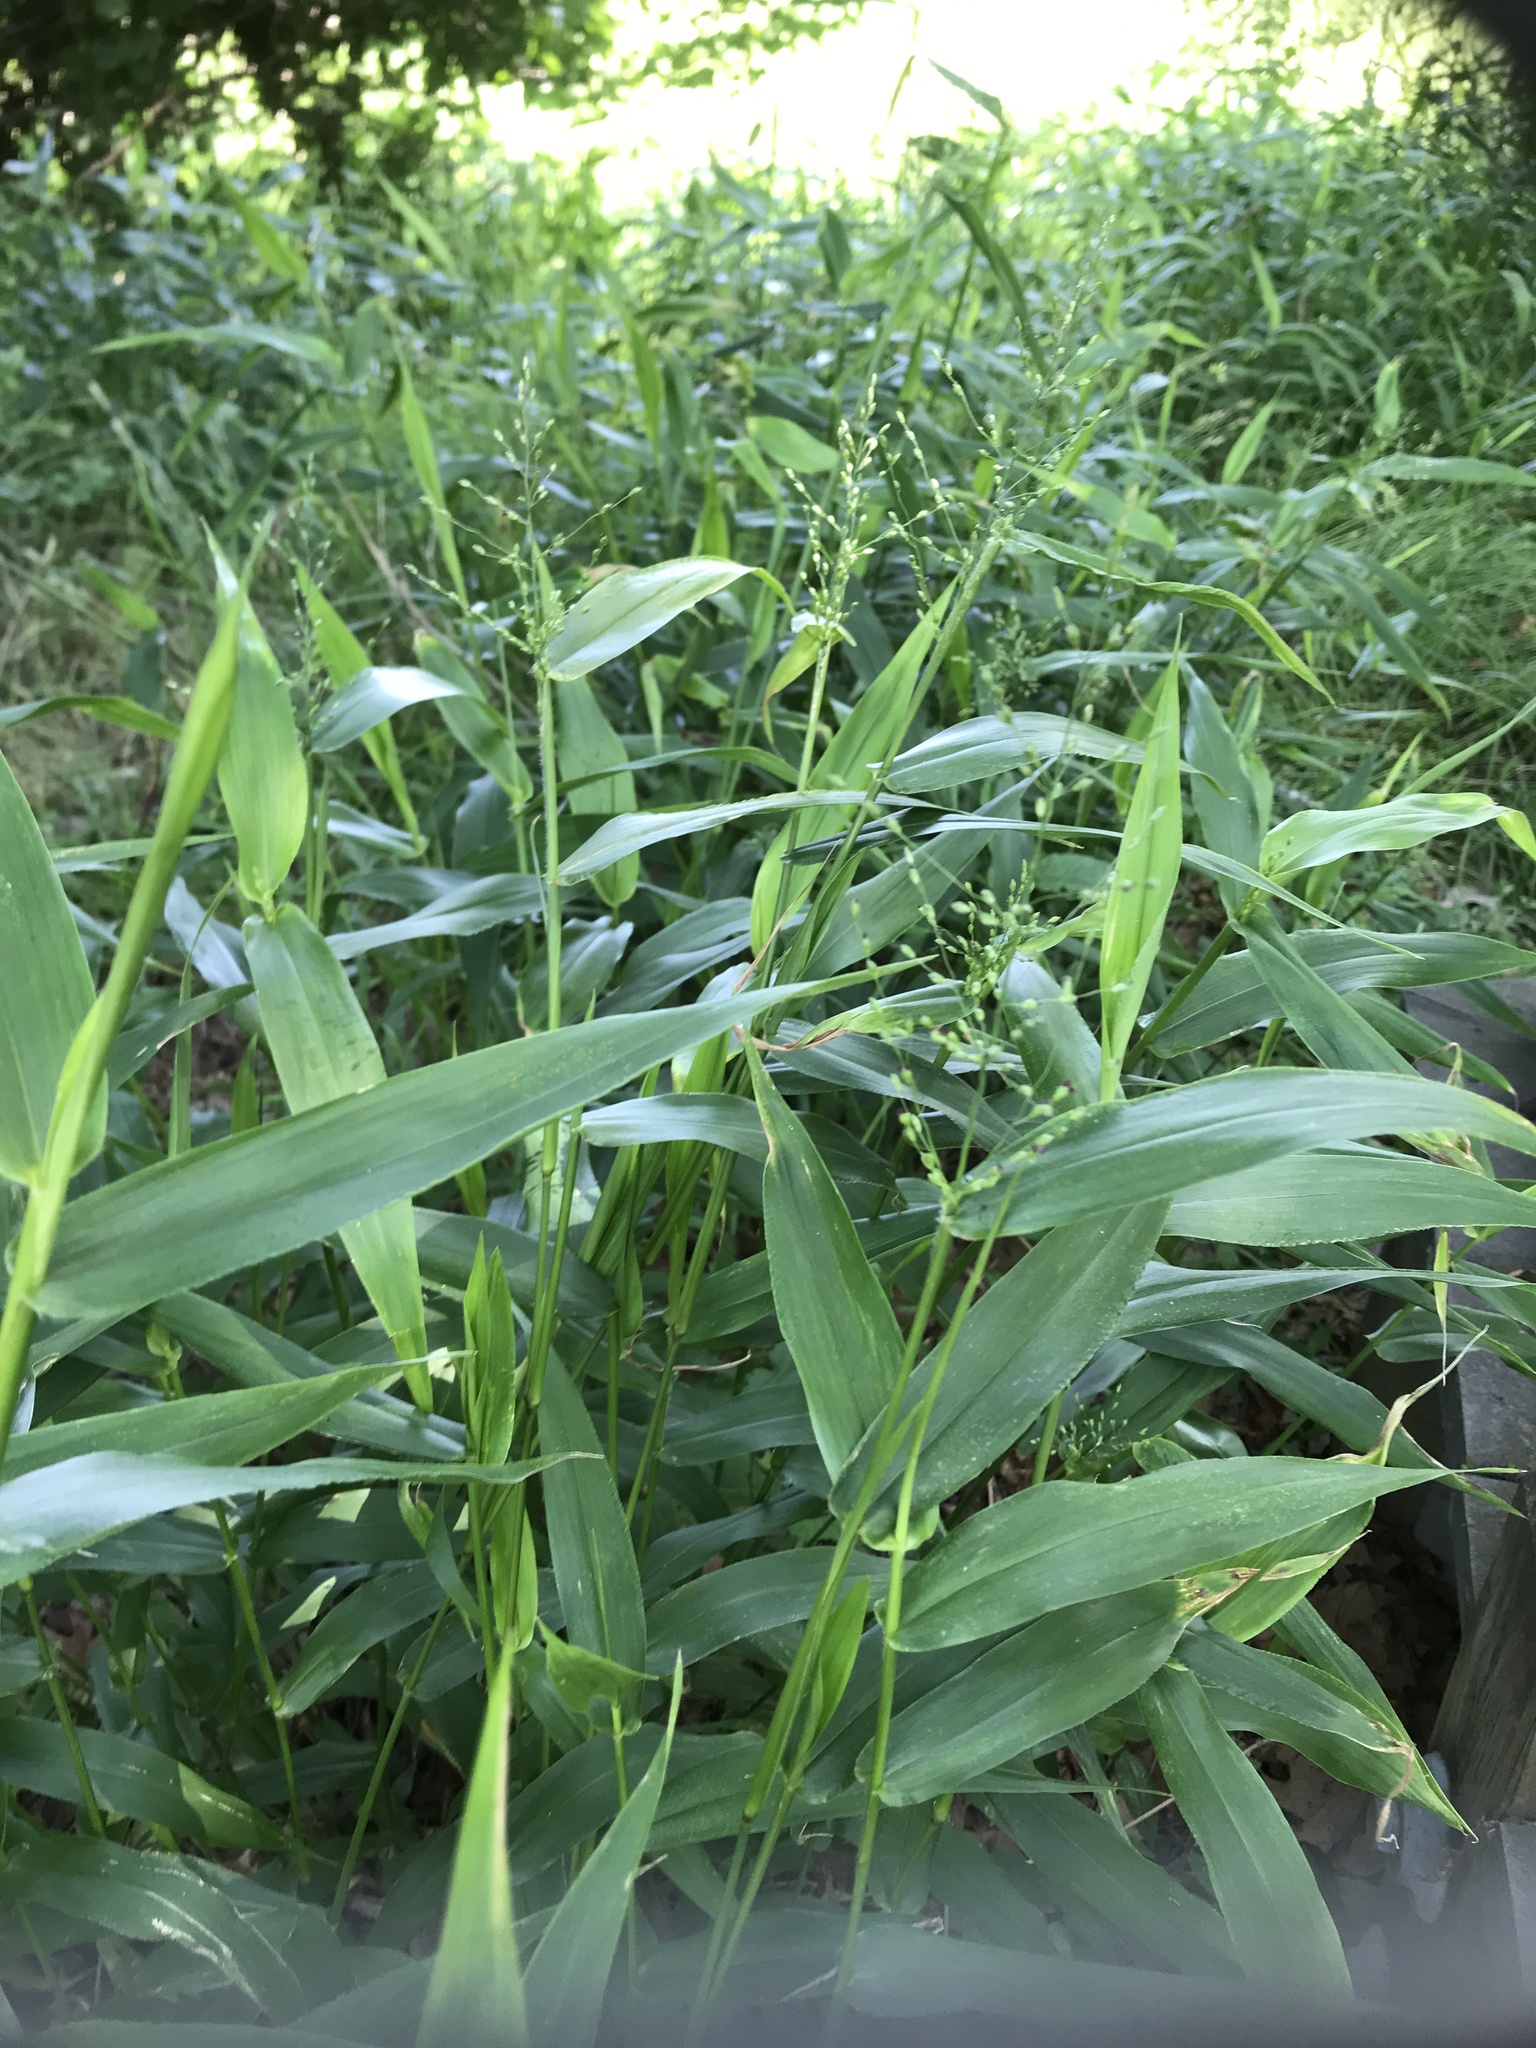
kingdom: Plantae
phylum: Tracheophyta
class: Liliopsida
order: Poales
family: Poaceae
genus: Dichanthelium
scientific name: Dichanthelium clandestinum
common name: Deer-tongue grass
